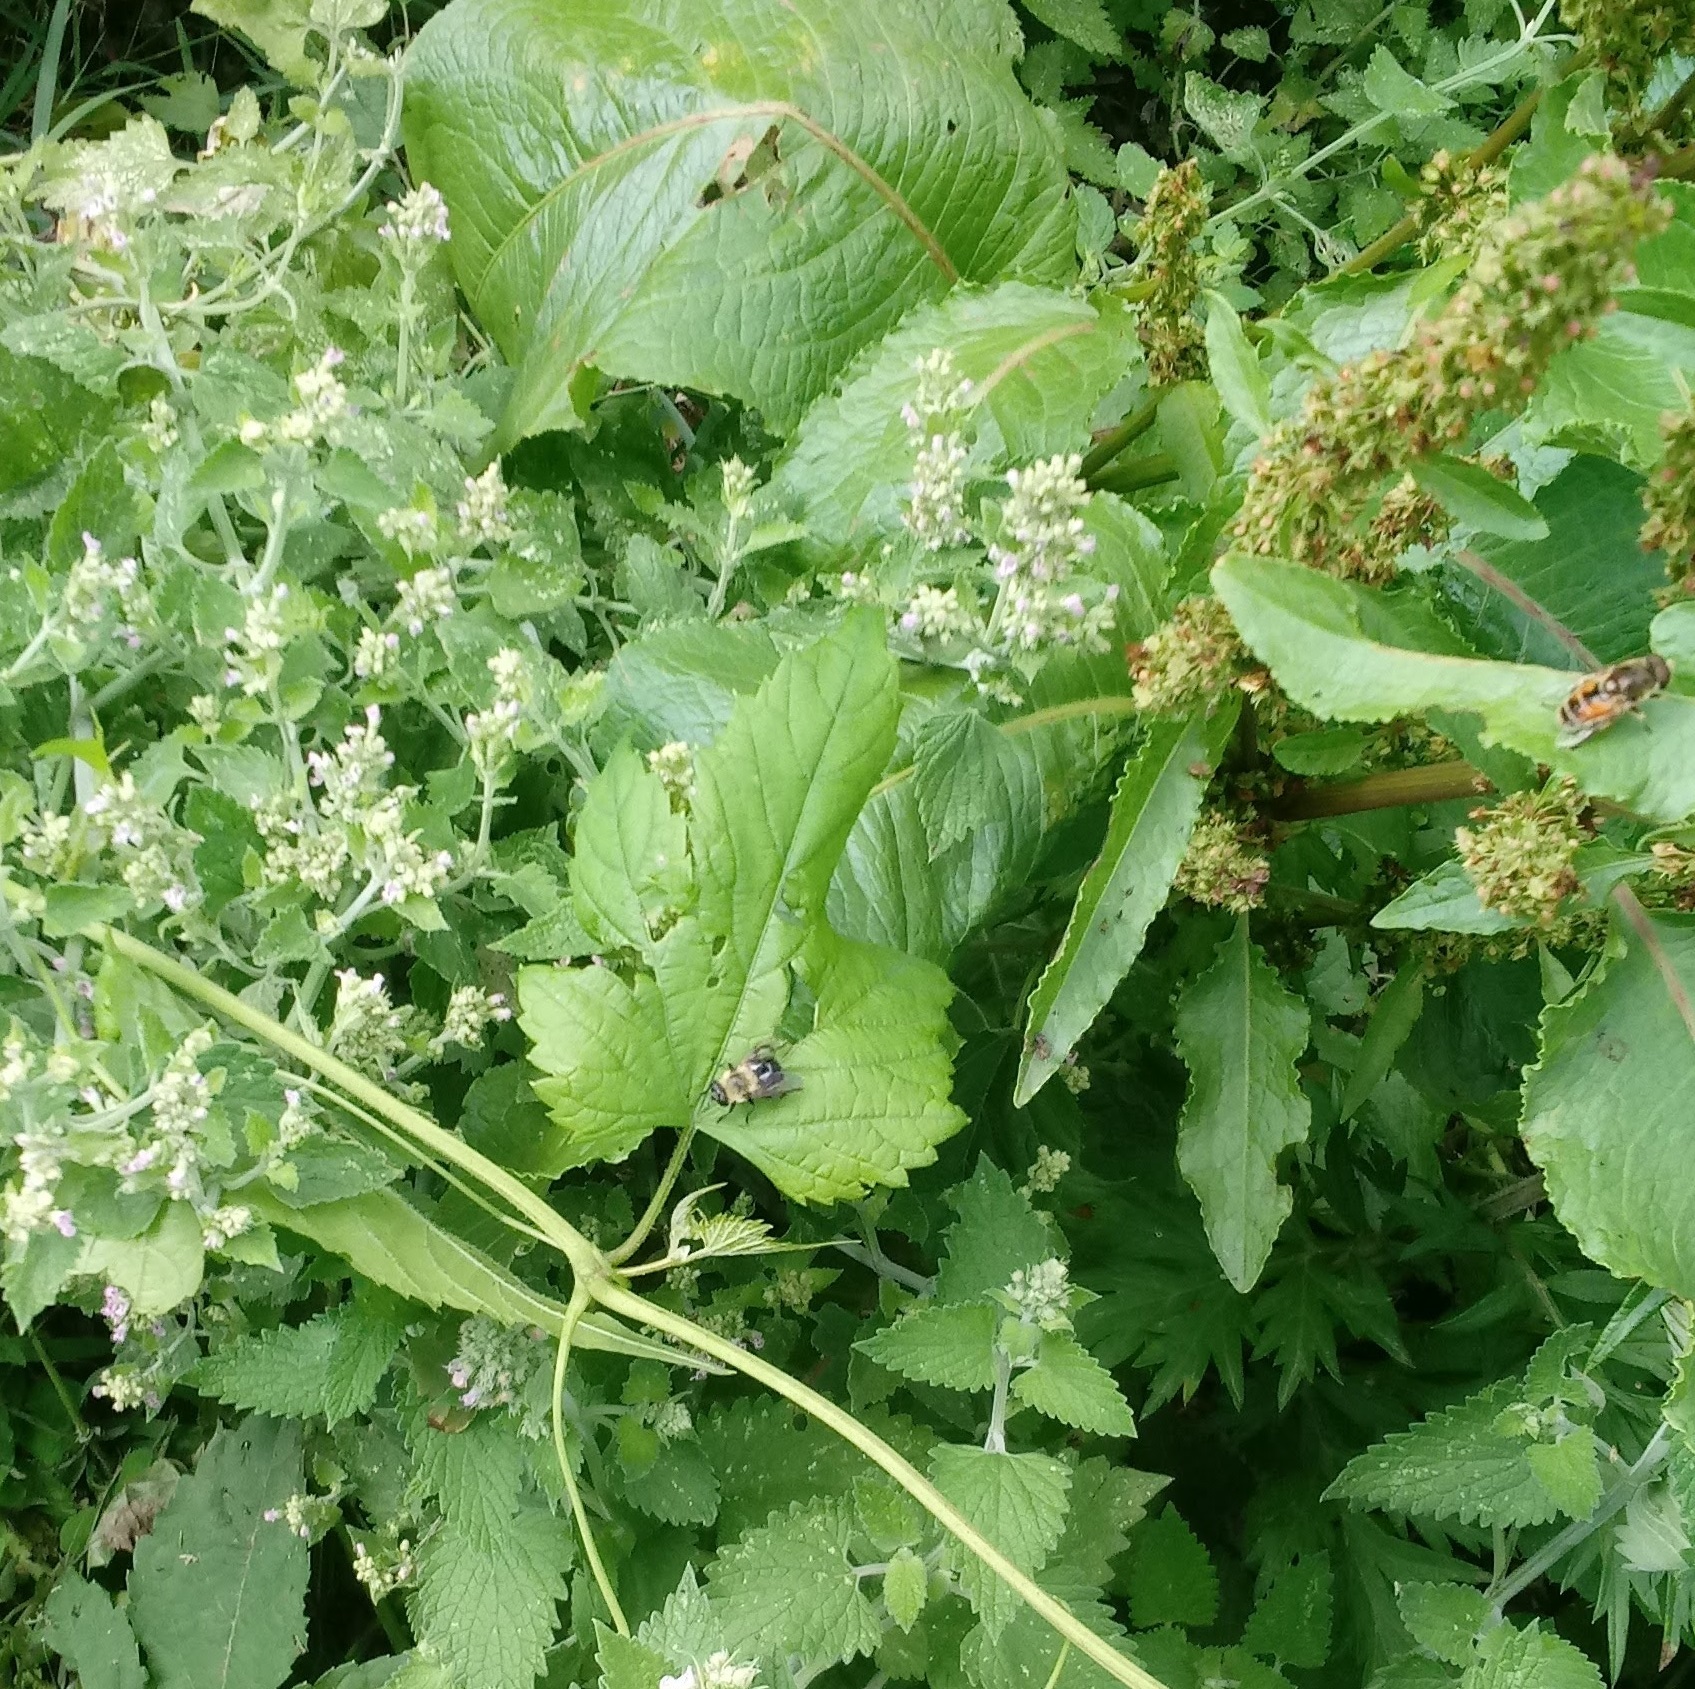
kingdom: Animalia
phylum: Arthropoda
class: Insecta
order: Diptera
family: Syrphidae
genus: Imatisma
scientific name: Imatisma bautias
